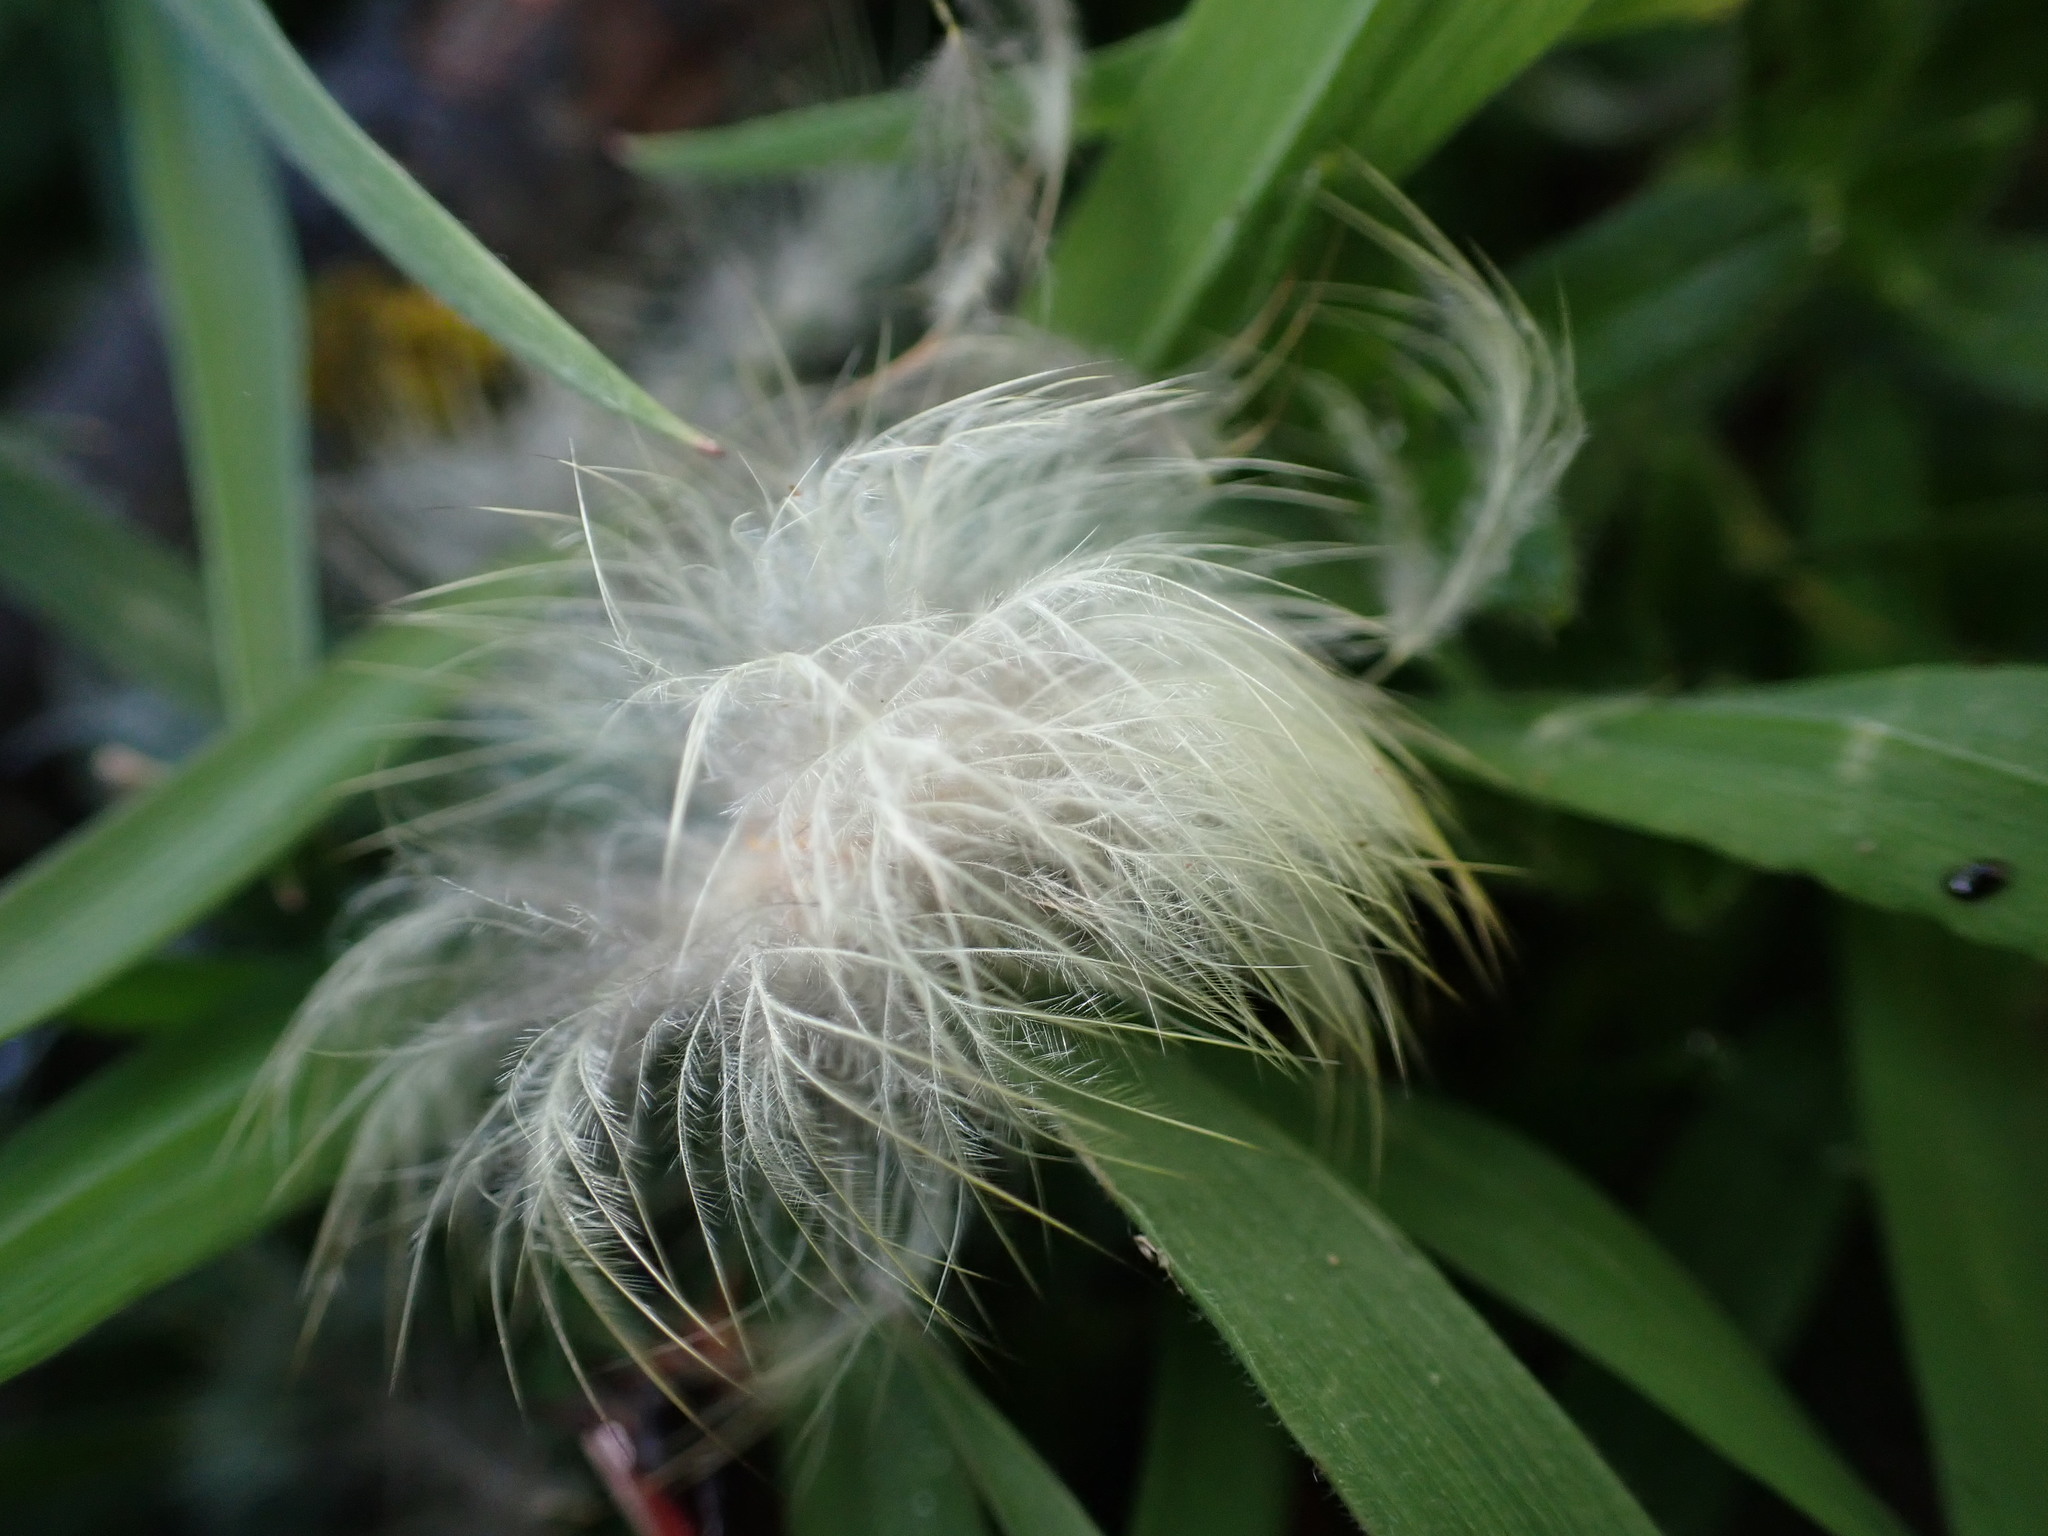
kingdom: Animalia
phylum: Chordata
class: Aves
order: Anseriformes
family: Anatidae
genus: Anas
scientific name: Anas platyrhynchos
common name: Mallard
